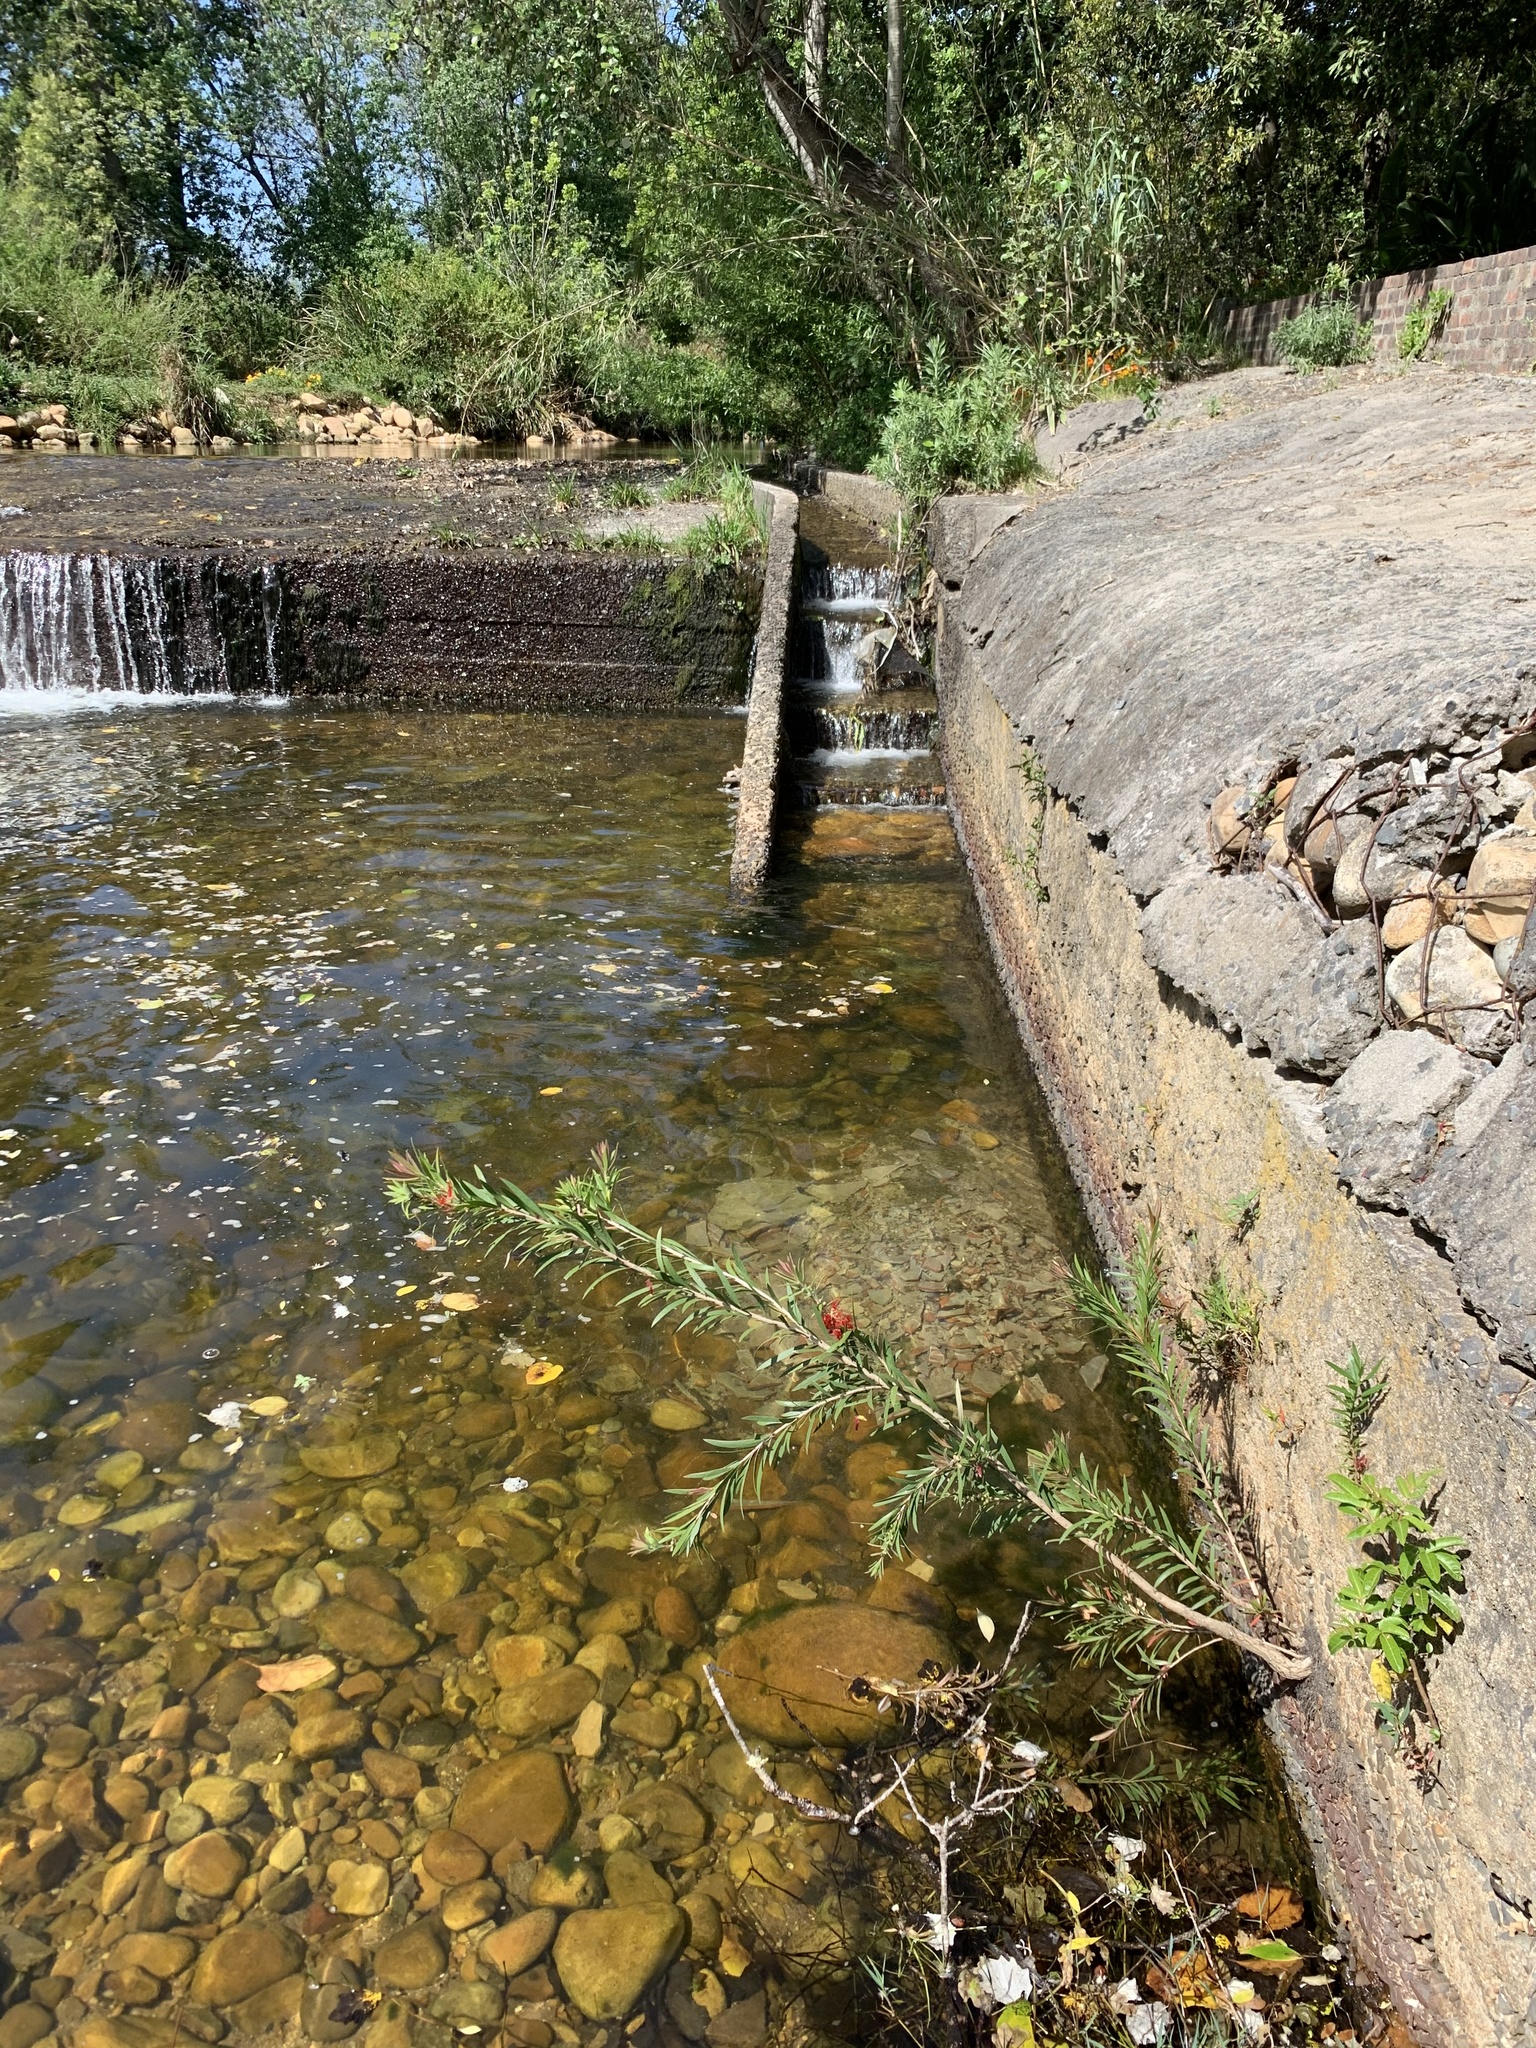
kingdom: Plantae
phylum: Tracheophyta
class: Magnoliopsida
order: Myrtales
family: Myrtaceae
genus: Callistemon
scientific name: Callistemon viminalis
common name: Drooping bottlebrush
